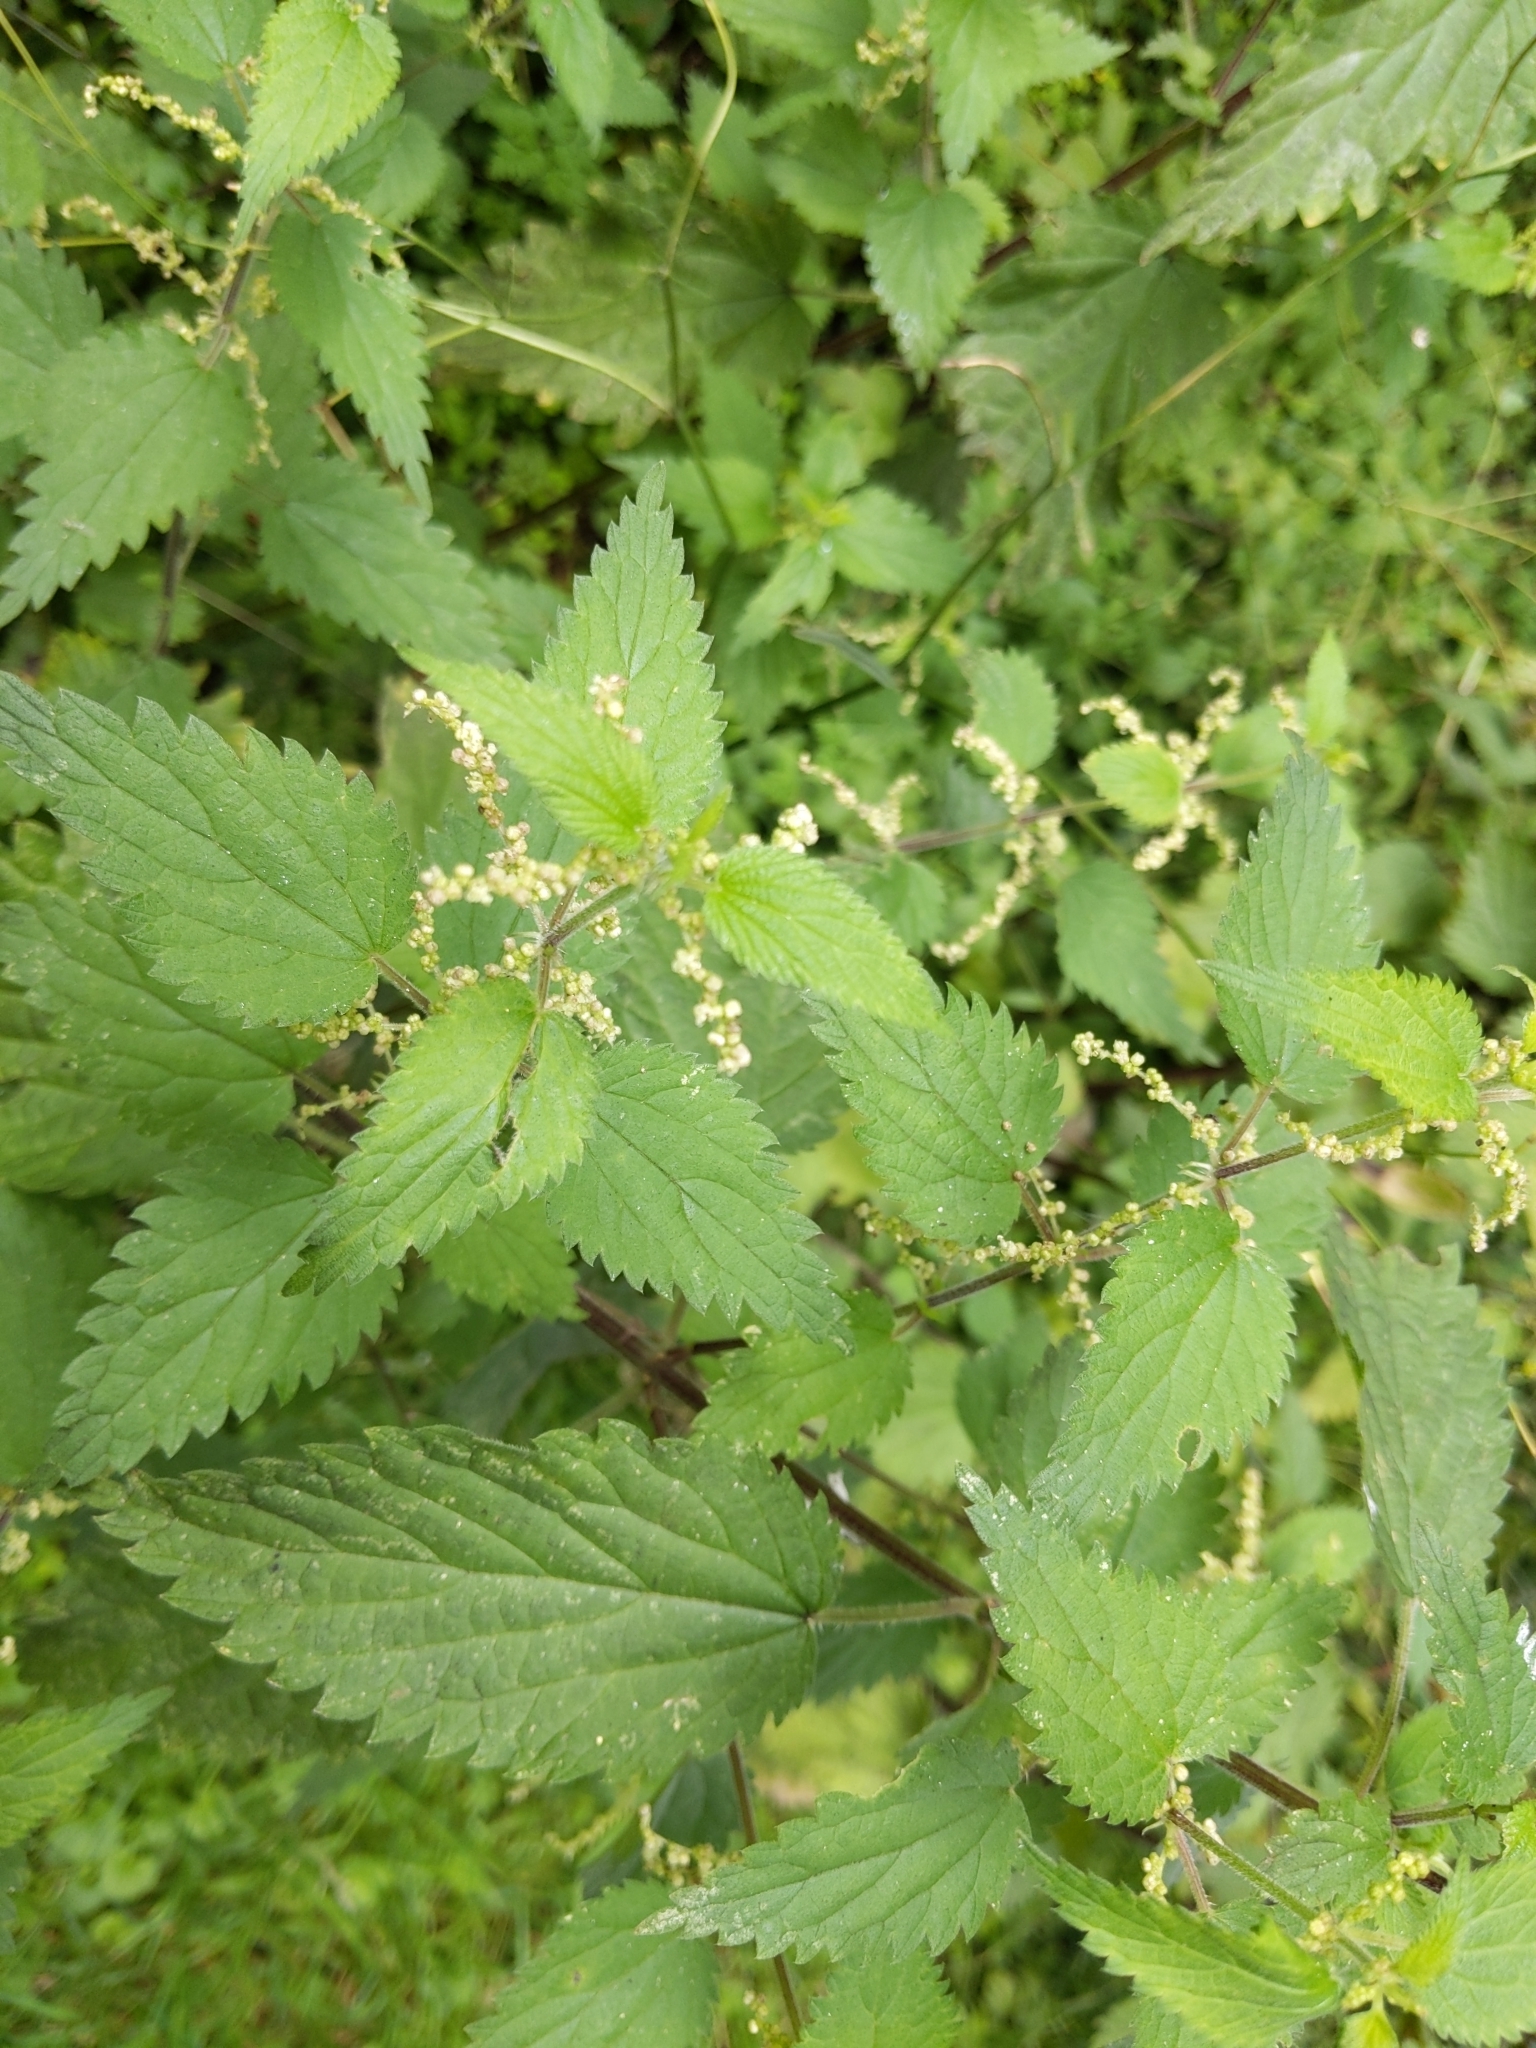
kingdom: Plantae
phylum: Tracheophyta
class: Magnoliopsida
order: Rosales
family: Urticaceae
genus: Urtica
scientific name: Urtica dioica
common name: Common nettle
